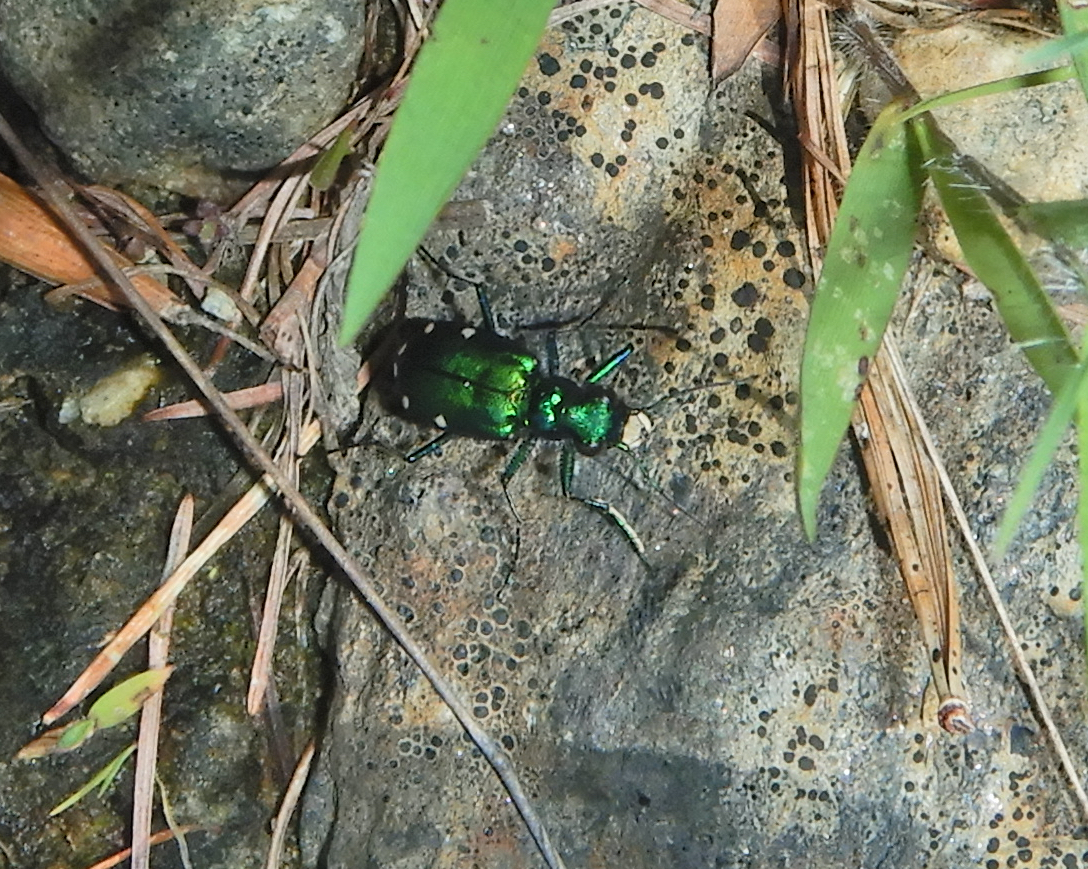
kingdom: Animalia
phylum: Arthropoda
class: Insecta
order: Coleoptera
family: Carabidae
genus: Cicindela
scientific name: Cicindela sexguttata
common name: Six-spotted tiger beetle
